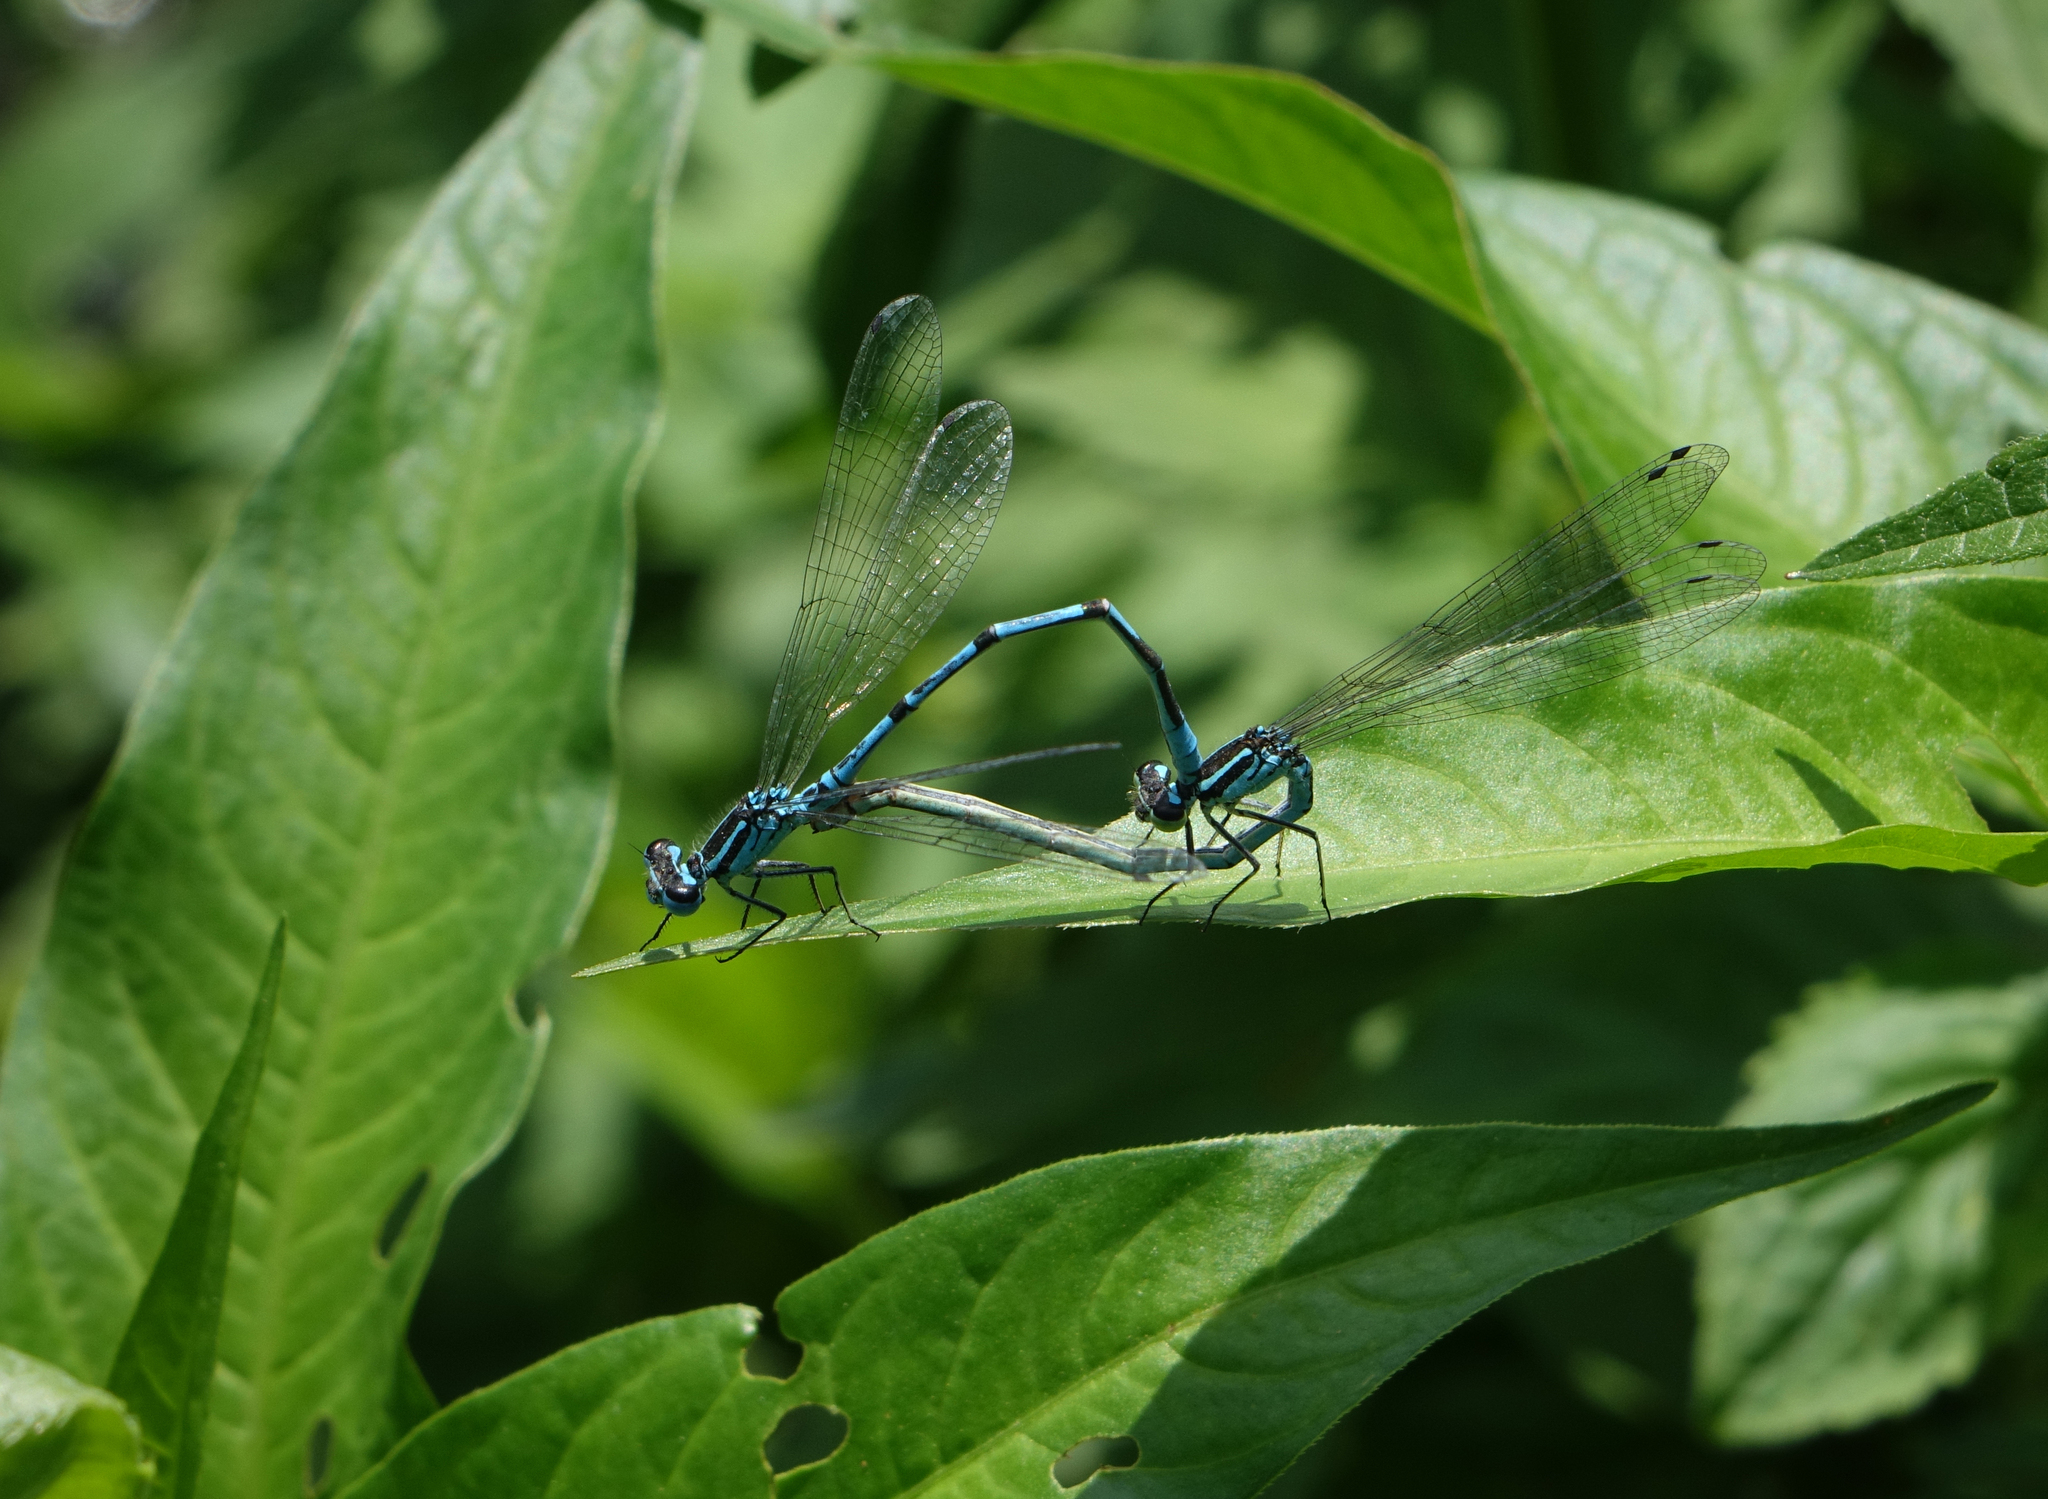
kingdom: Animalia
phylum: Arthropoda
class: Insecta
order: Odonata
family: Coenagrionidae
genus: Coenagrion
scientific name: Coenagrion puella
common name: Azure damselfly
